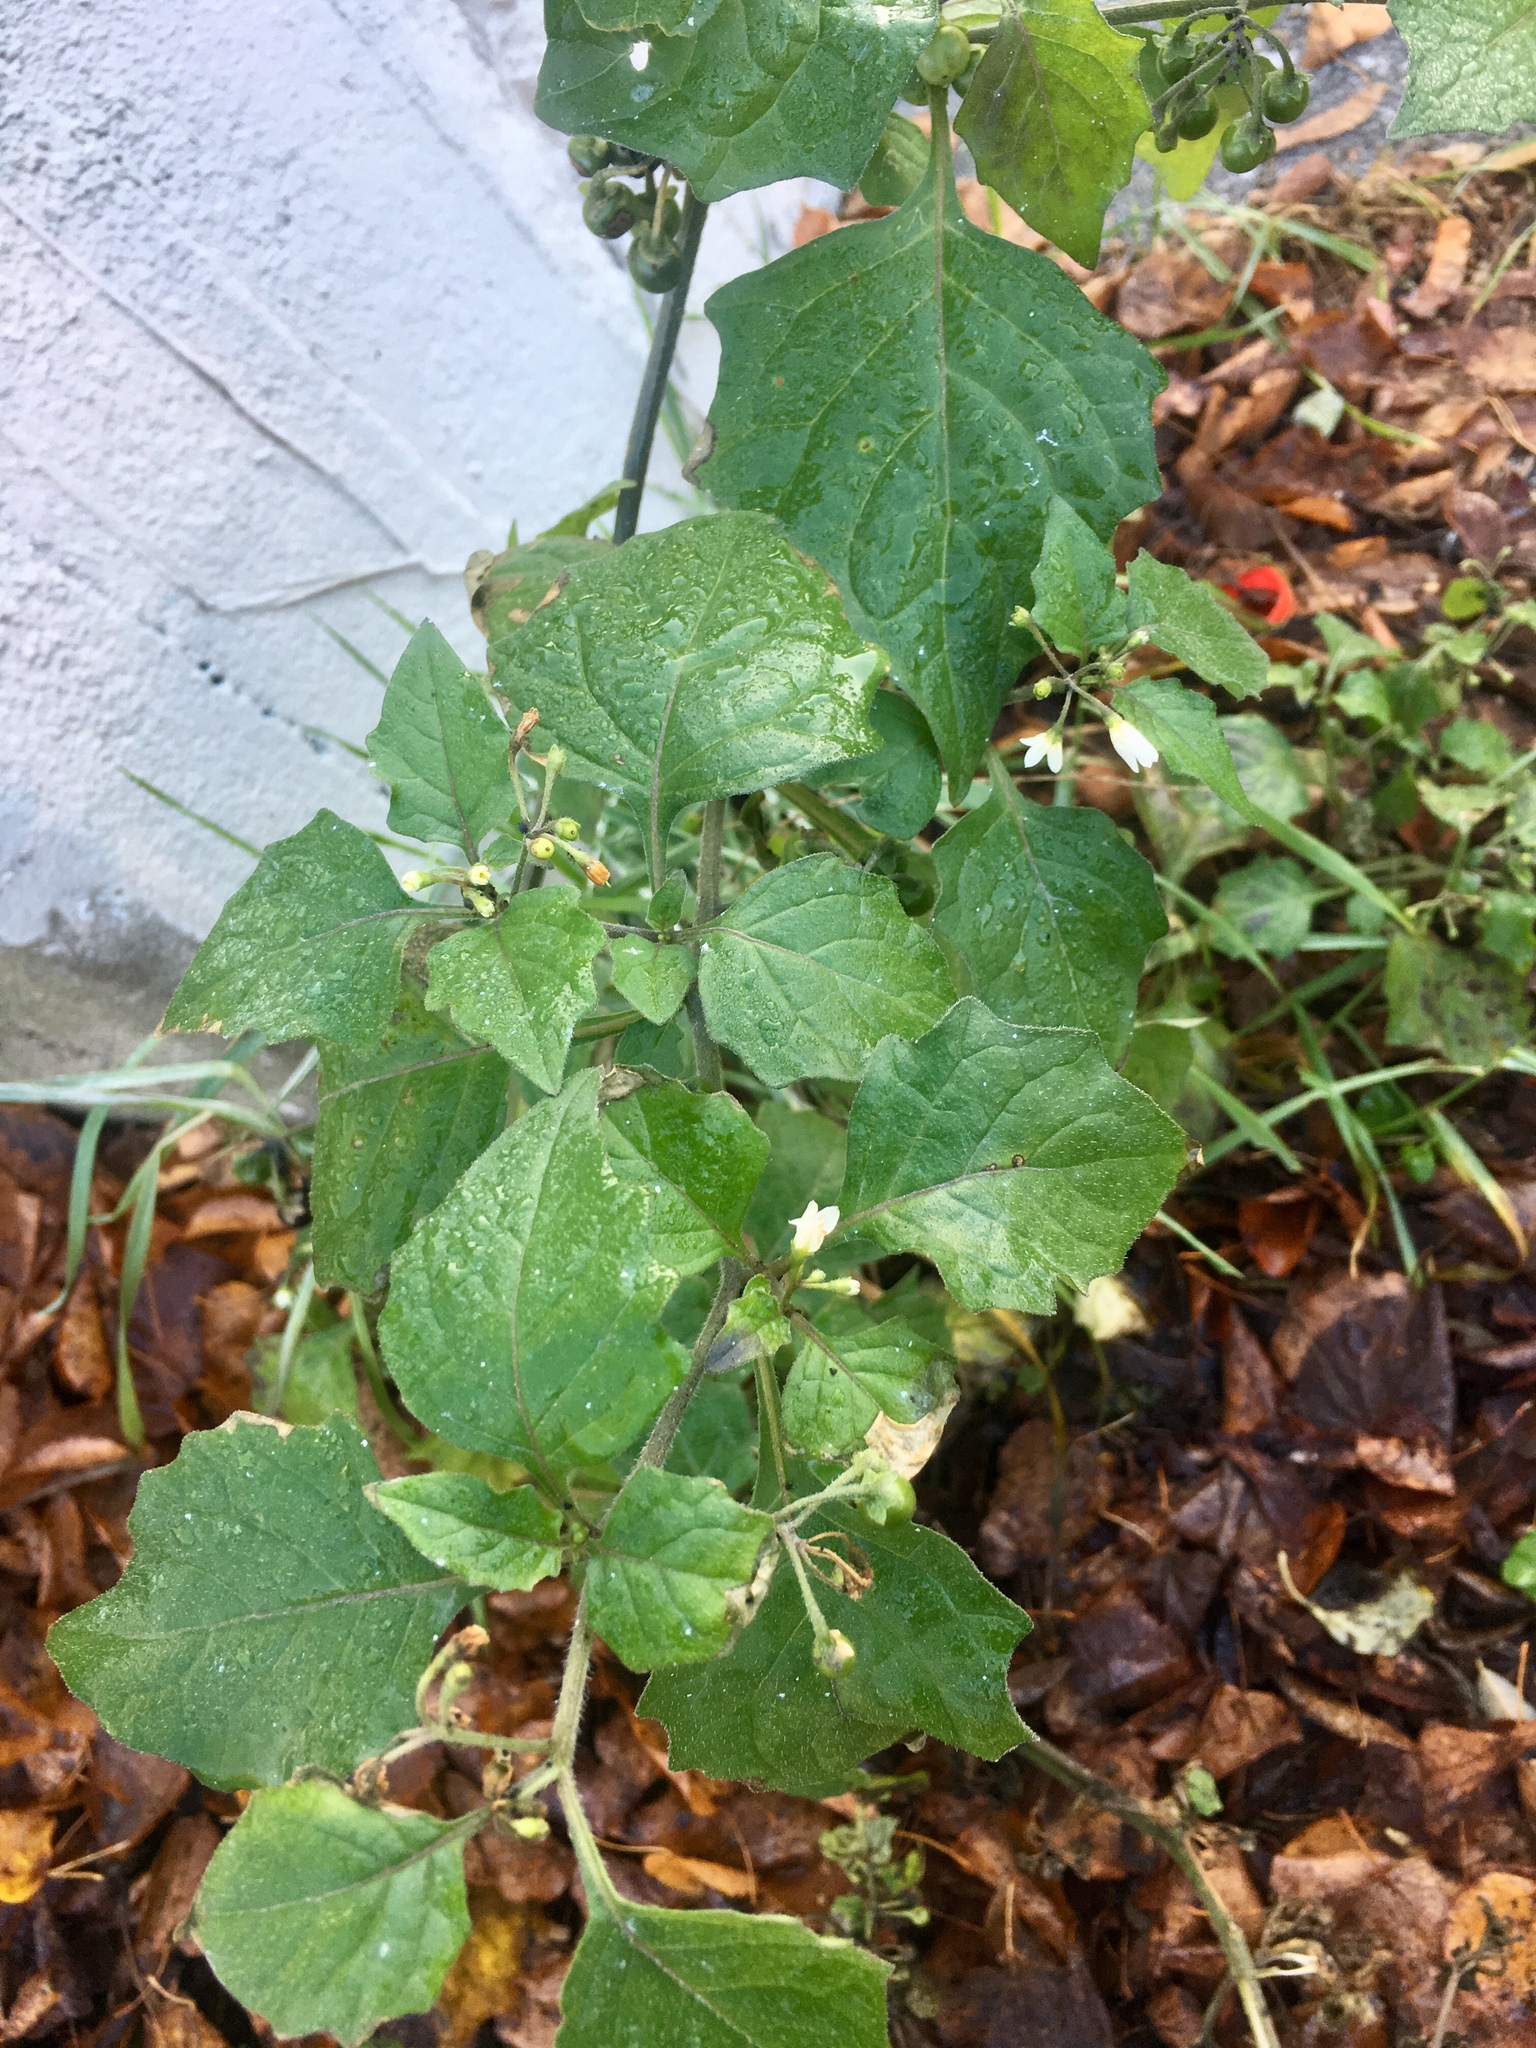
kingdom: Plantae
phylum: Tracheophyta
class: Magnoliopsida
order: Solanales
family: Solanaceae
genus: Solanum
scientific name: Solanum nigrum
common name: Black nightshade
